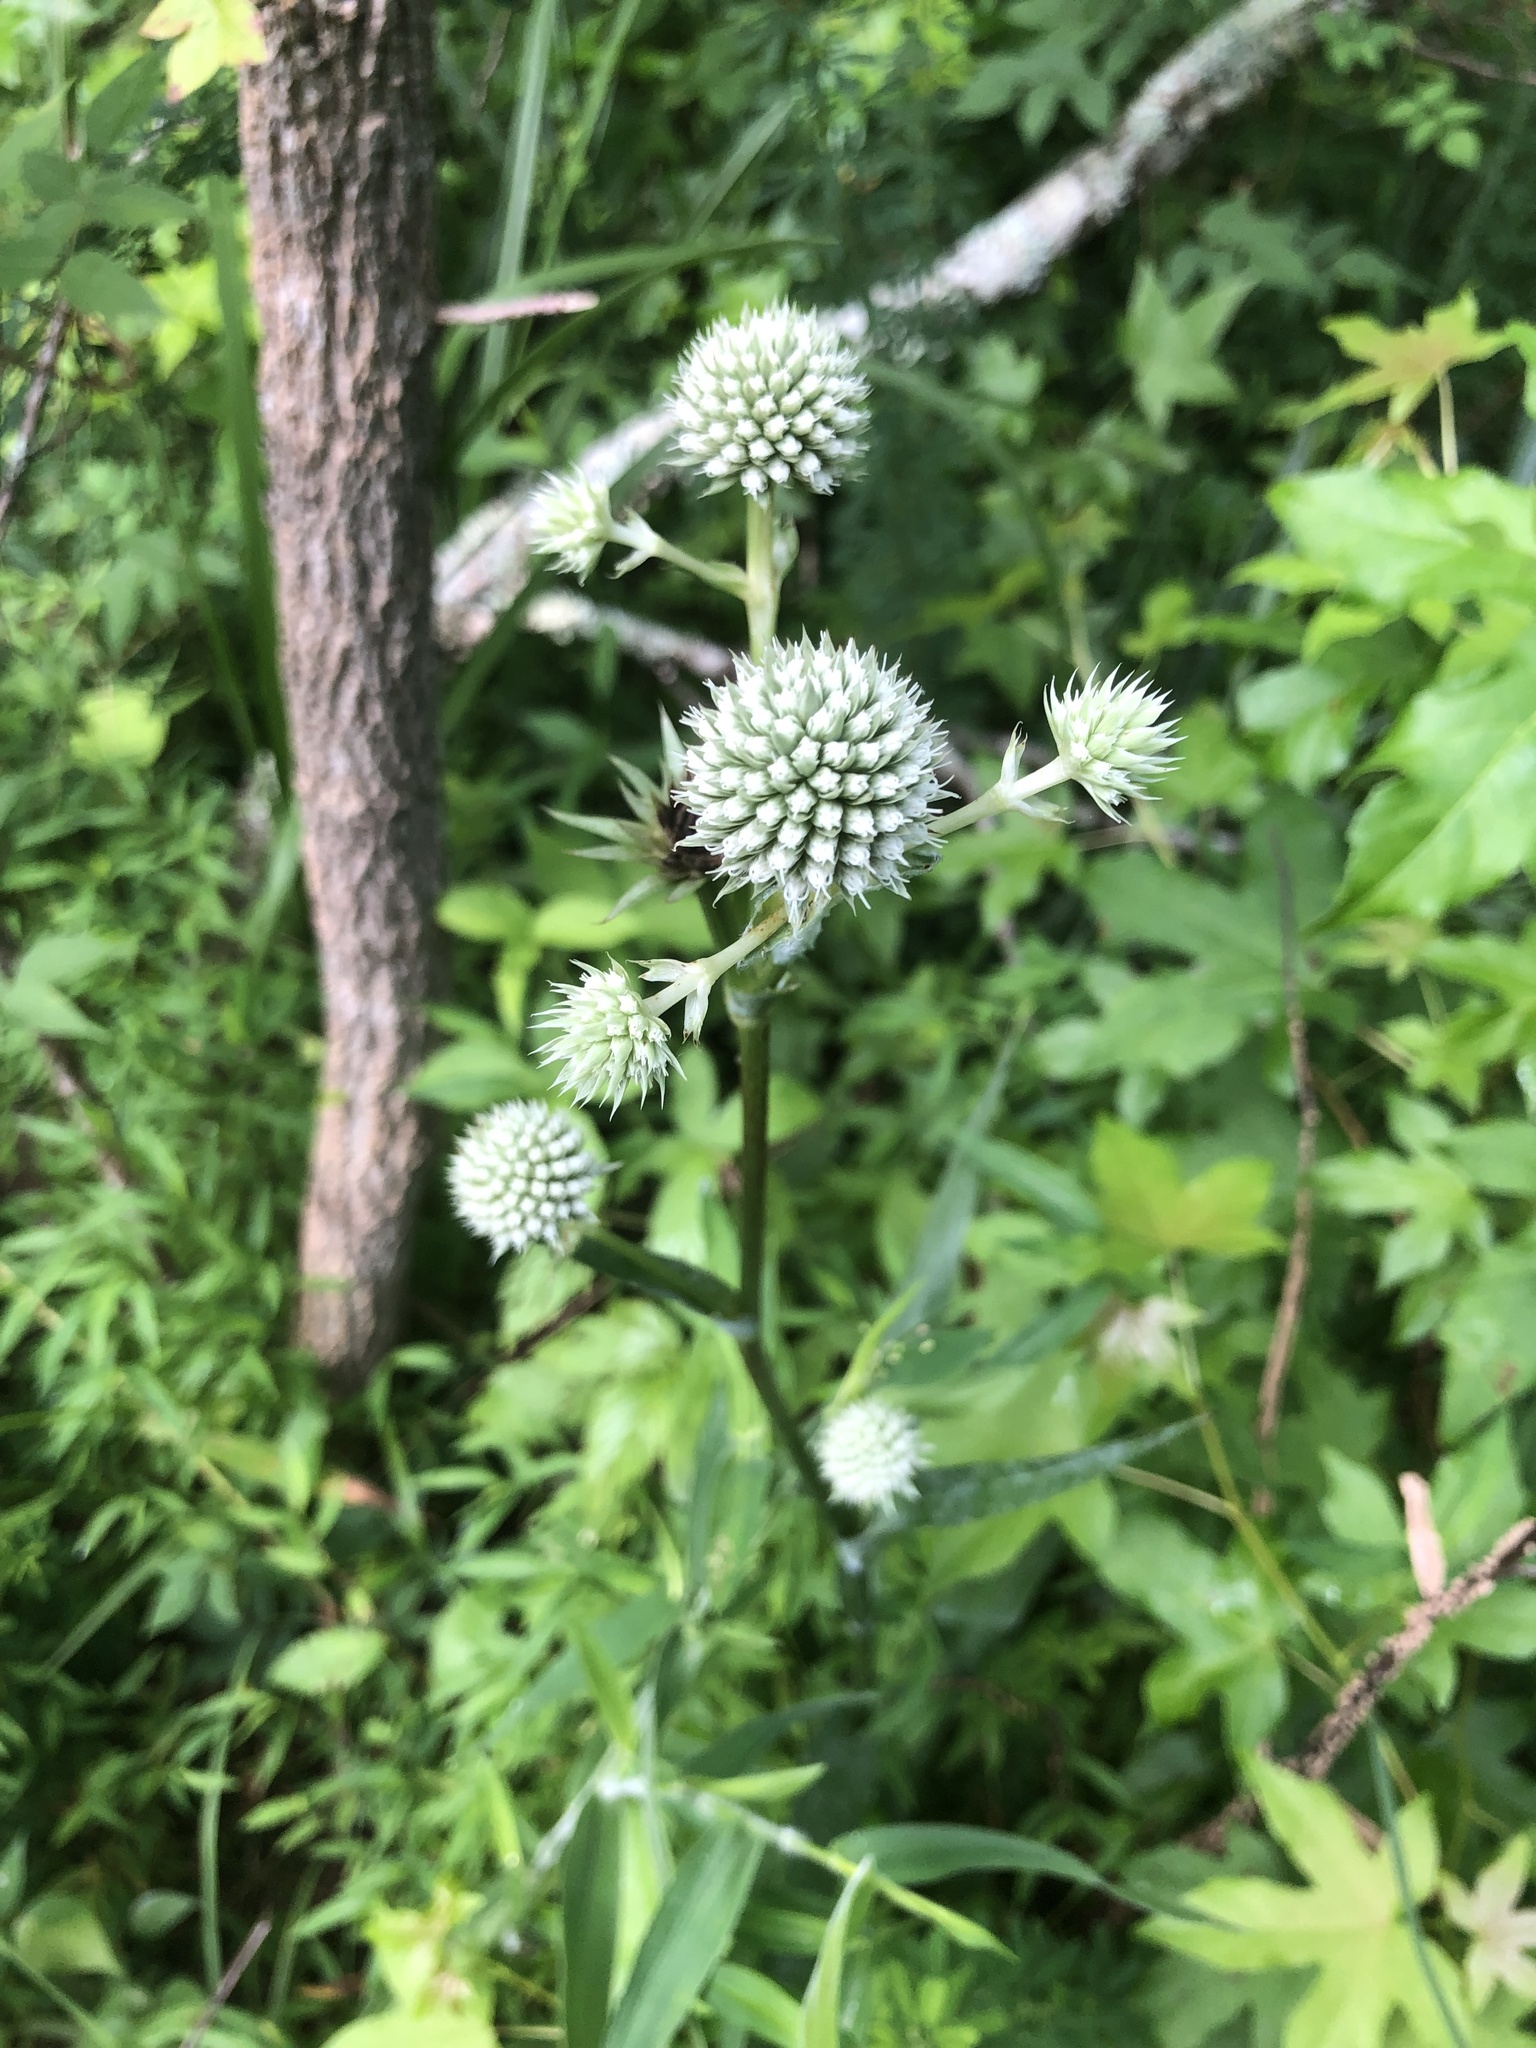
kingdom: Plantae
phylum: Tracheophyta
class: Magnoliopsida
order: Apiales
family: Apiaceae
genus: Eryngium
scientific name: Eryngium yuccifolium
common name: Button eryngo
